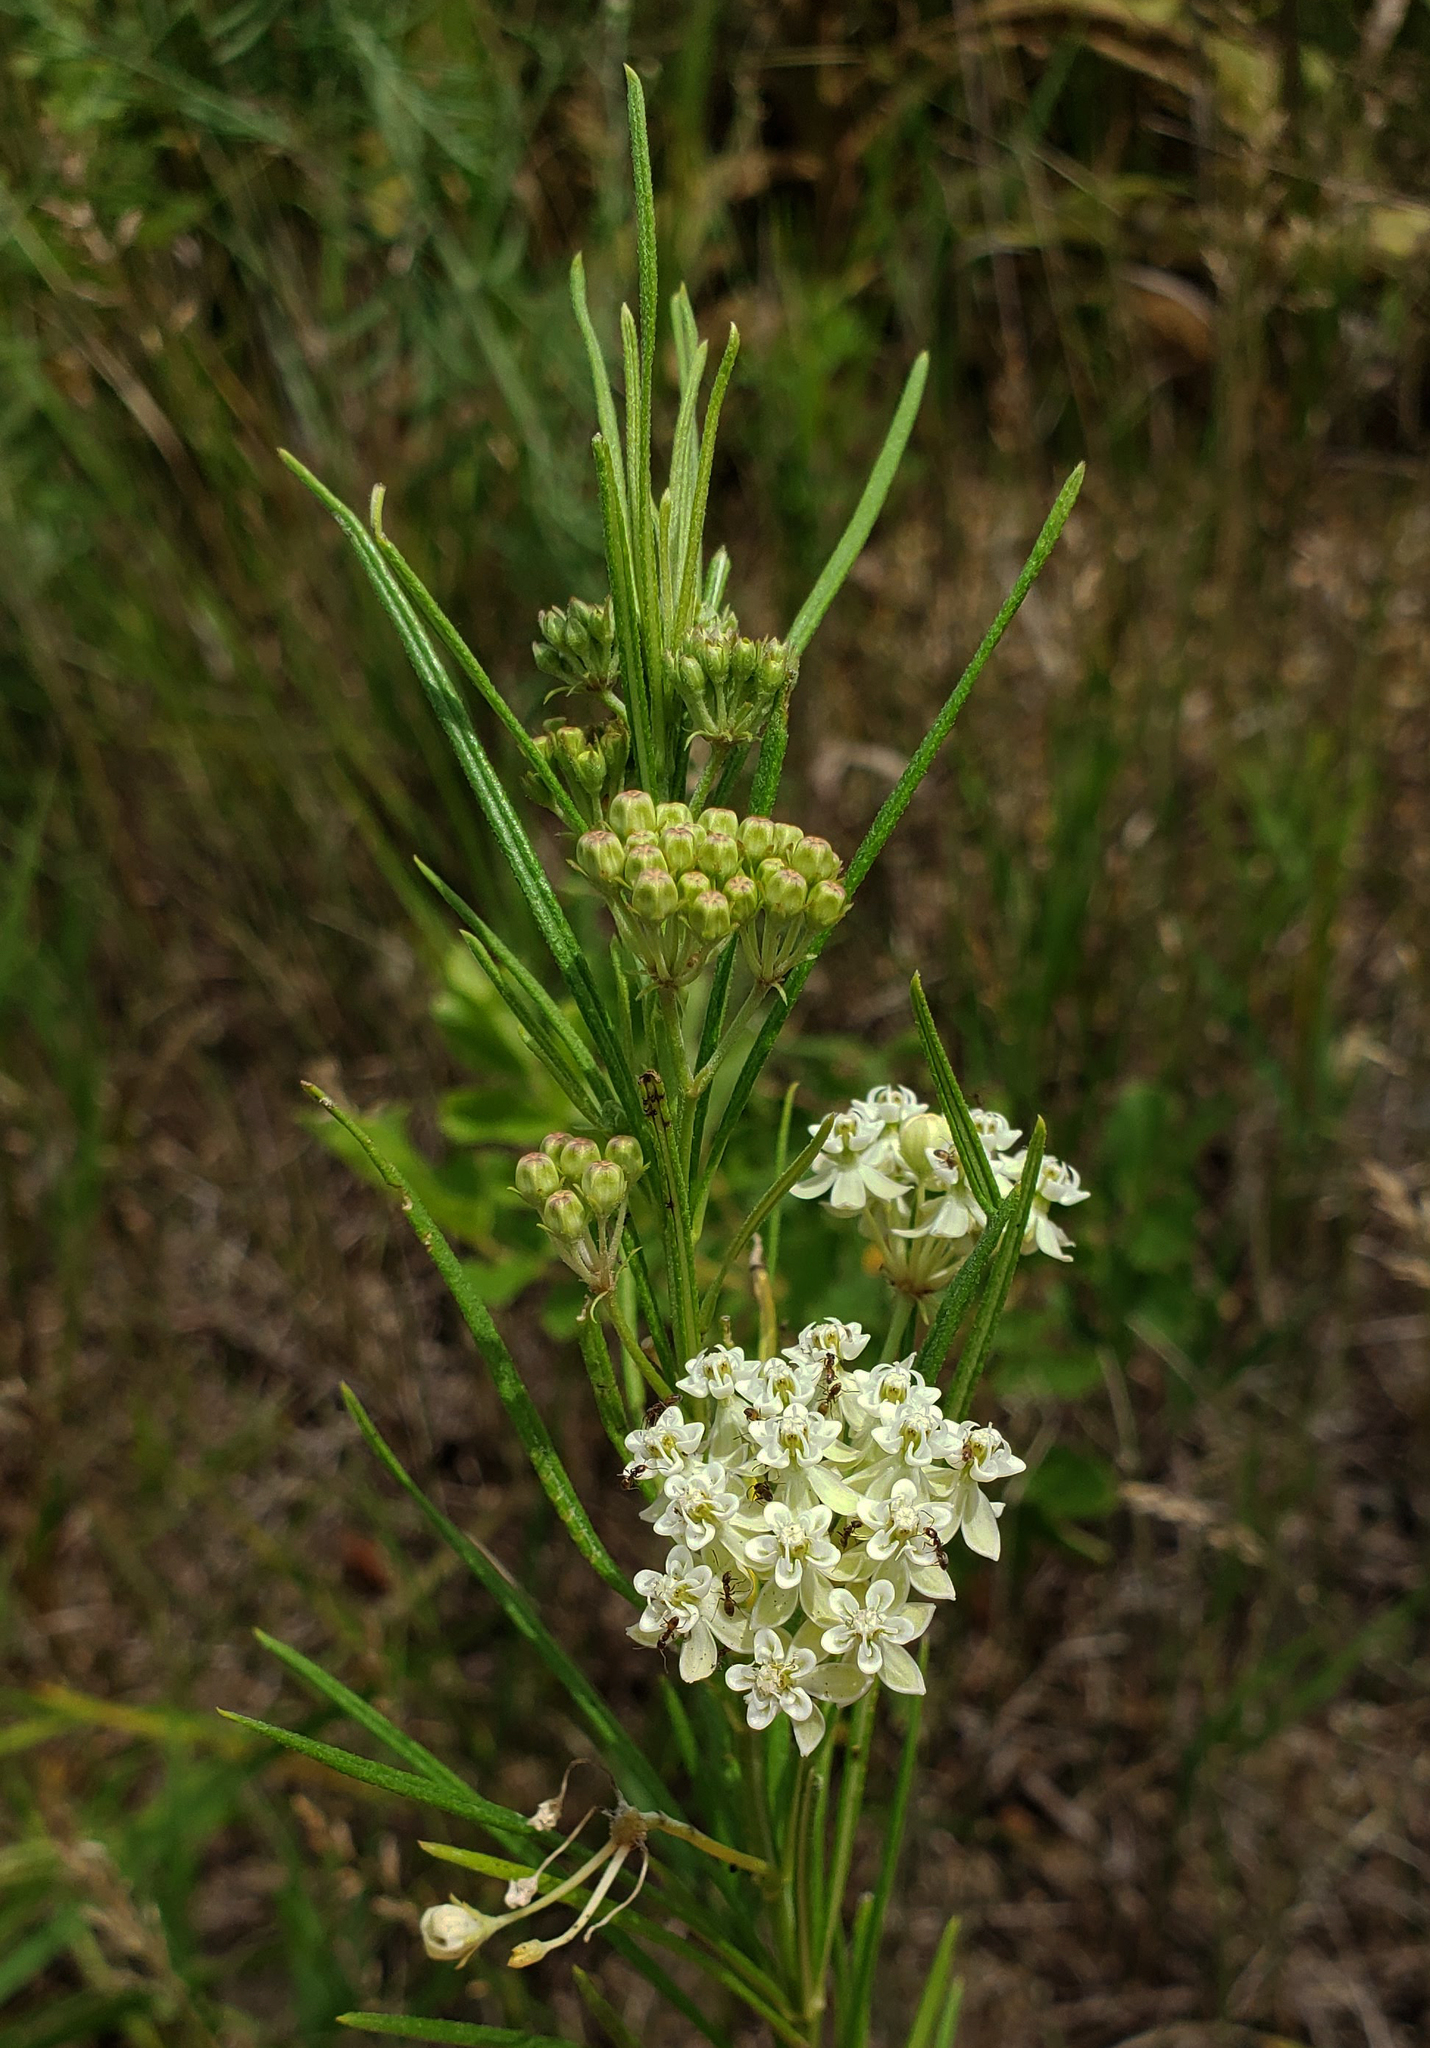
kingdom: Plantae
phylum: Tracheophyta
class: Magnoliopsida
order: Gentianales
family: Apocynaceae
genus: Asclepias
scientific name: Asclepias verticillata
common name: Eastern whorled milkweed
